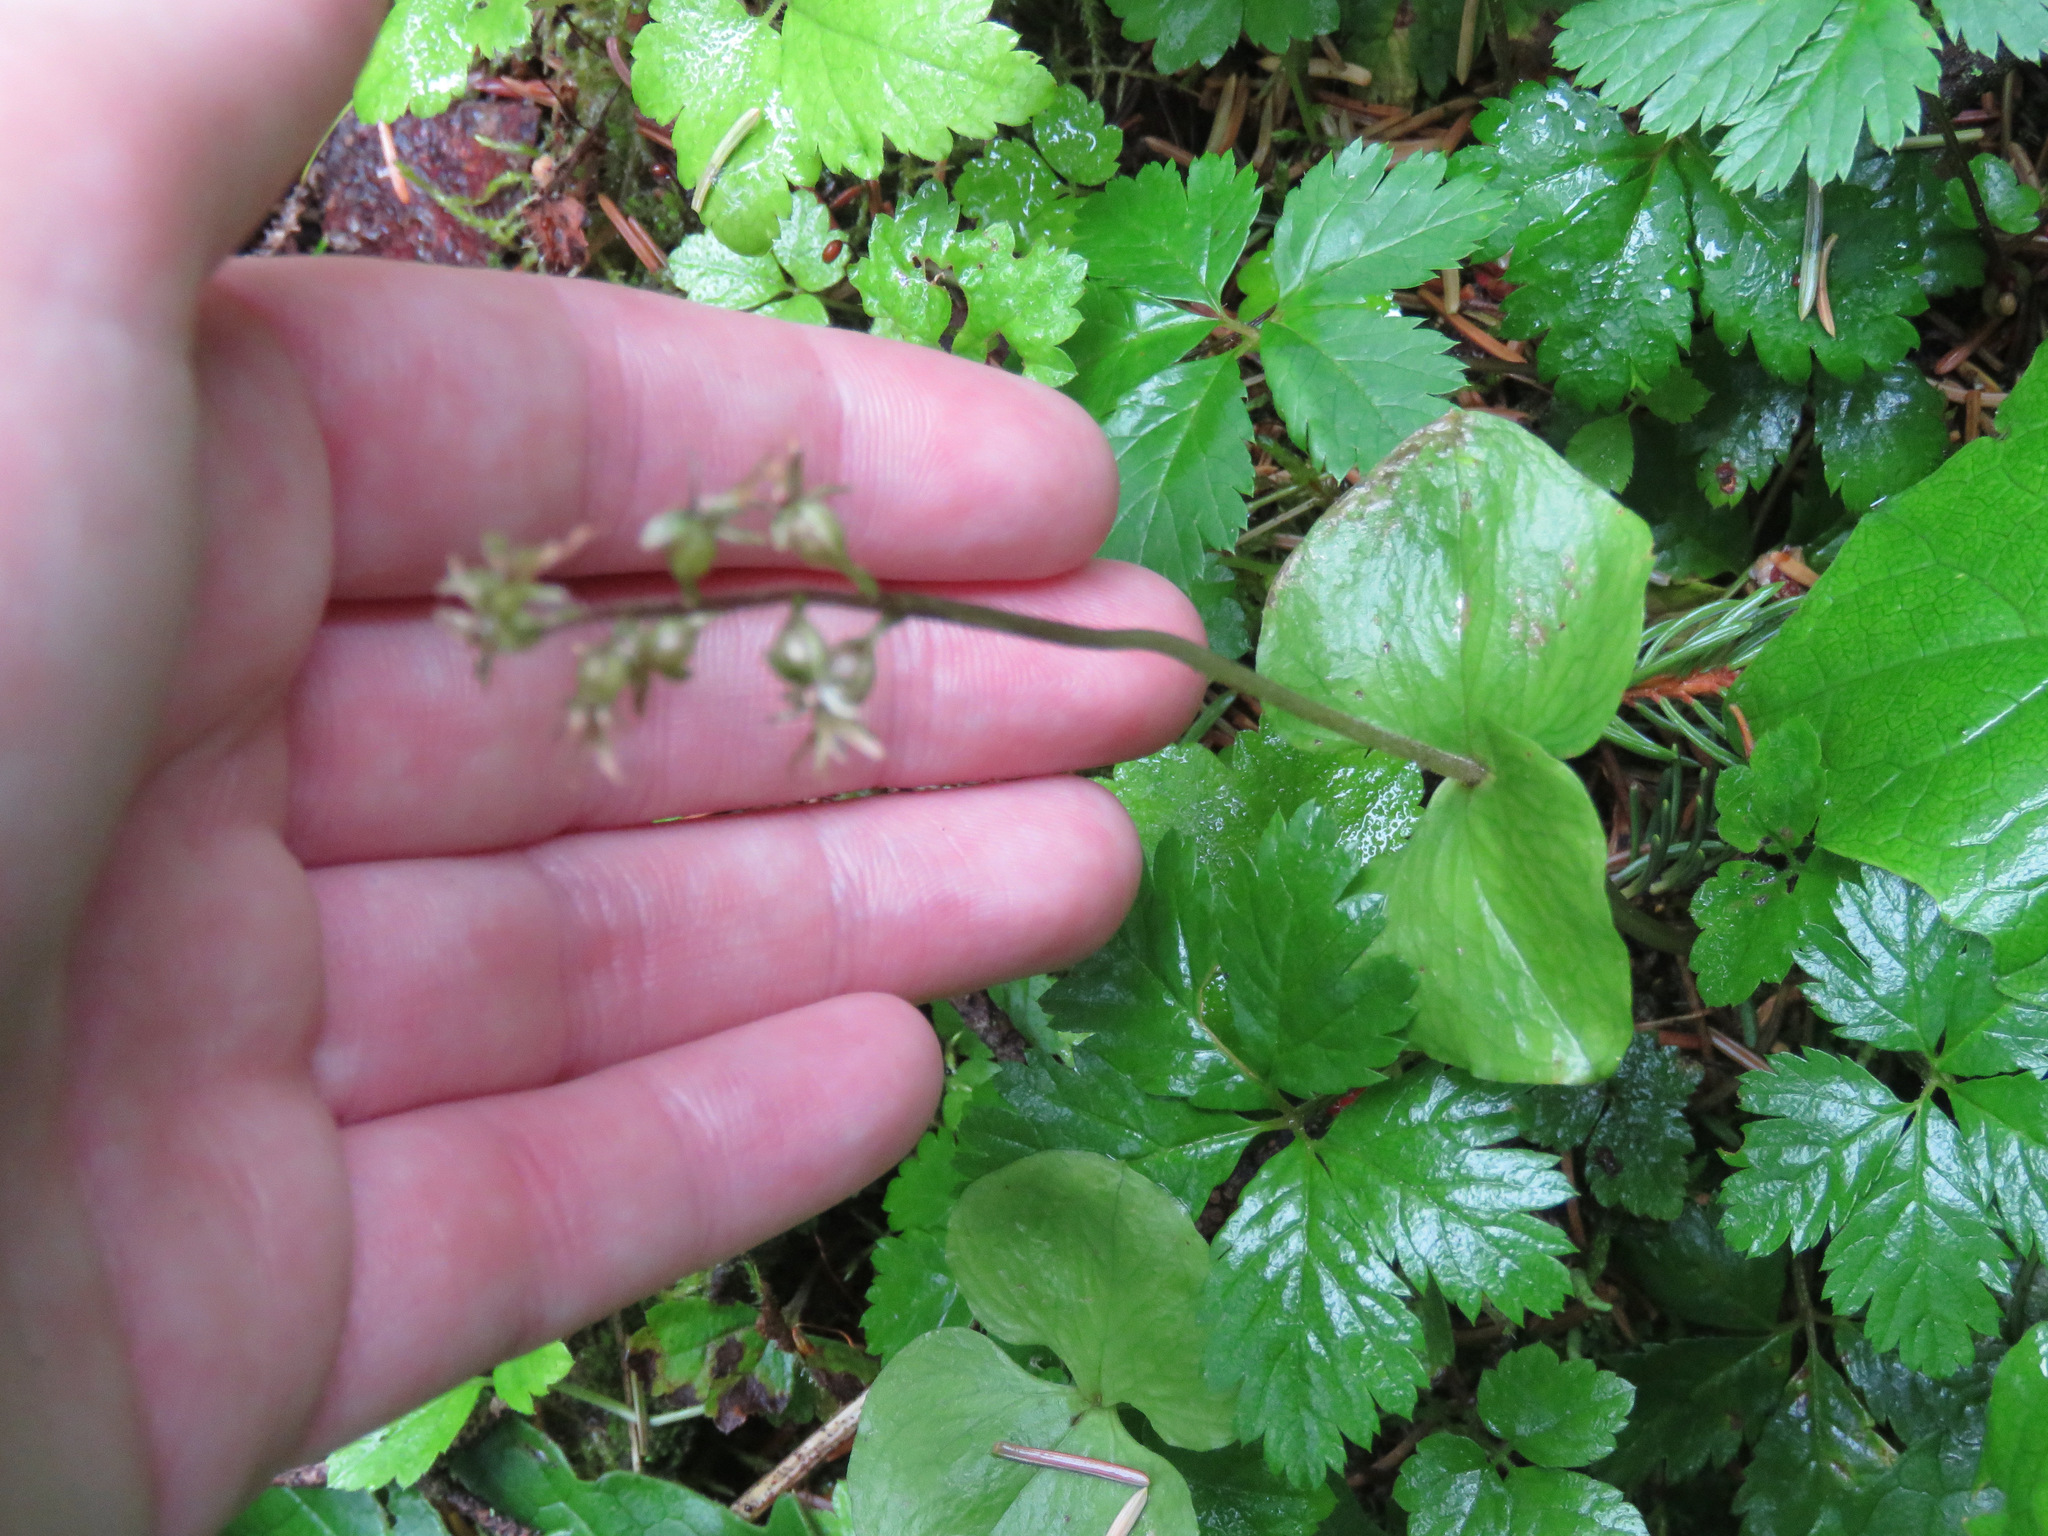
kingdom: Plantae
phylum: Tracheophyta
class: Liliopsida
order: Asparagales
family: Orchidaceae
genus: Neottia
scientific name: Neottia cordata
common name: Lesser twayblade
